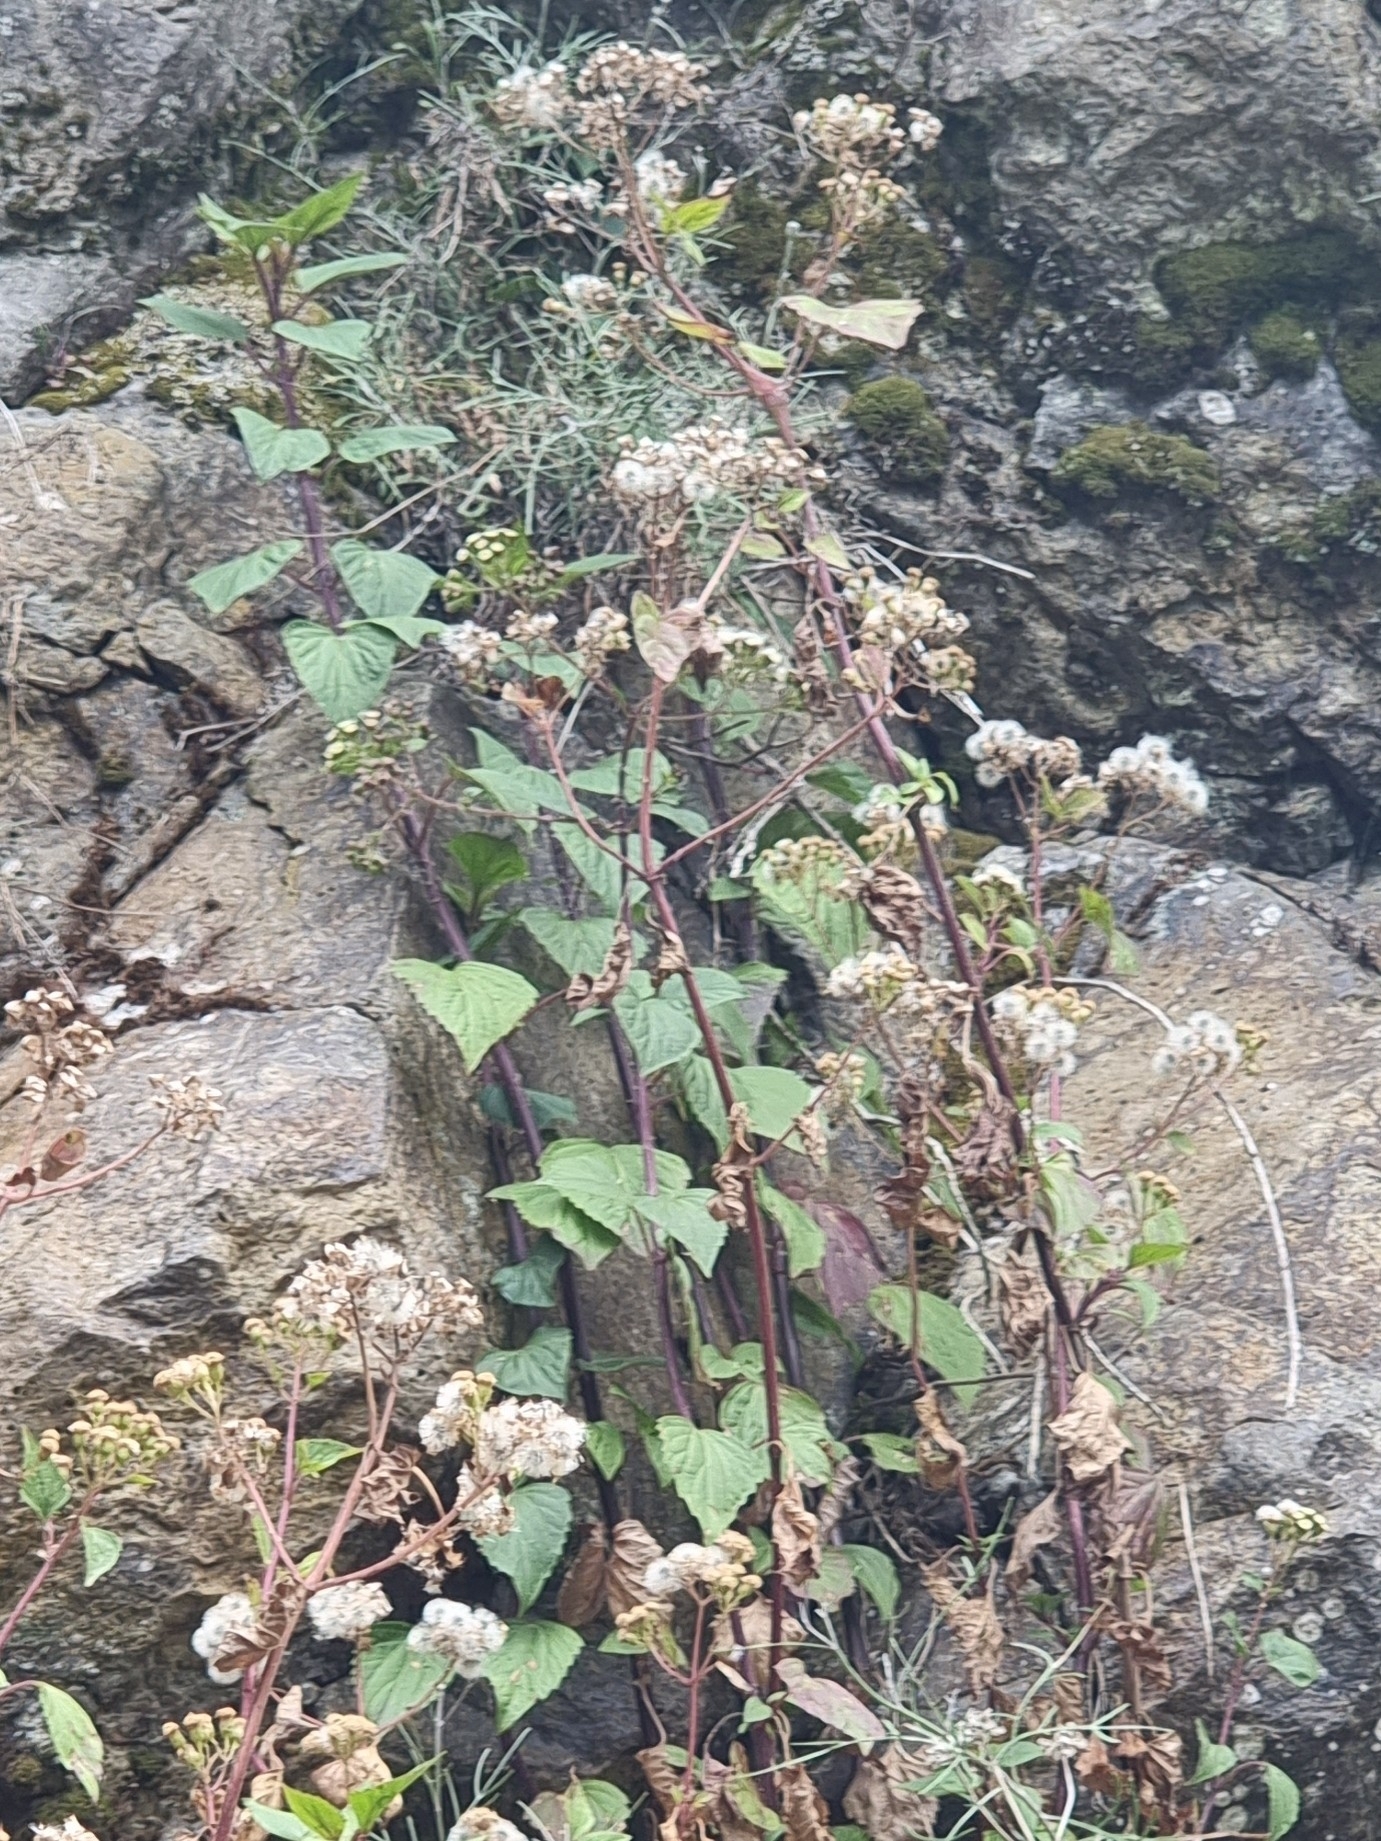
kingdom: Plantae
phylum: Tracheophyta
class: Magnoliopsida
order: Asterales
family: Asteraceae
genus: Ageratina
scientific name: Ageratina adenophora
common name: Sticky snakeroot
